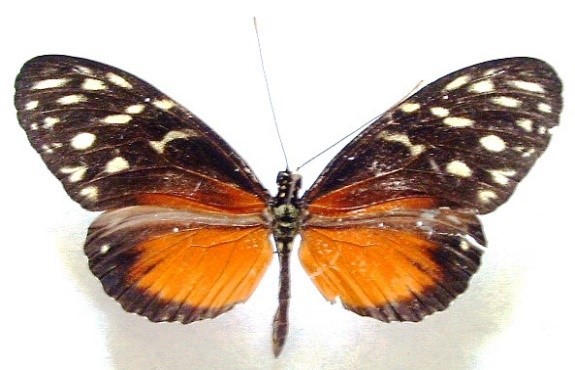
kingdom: Animalia
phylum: Arthropoda
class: Insecta
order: Lepidoptera
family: Nymphalidae
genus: Heliconius
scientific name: Heliconius hecale
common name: Tiger longwing
